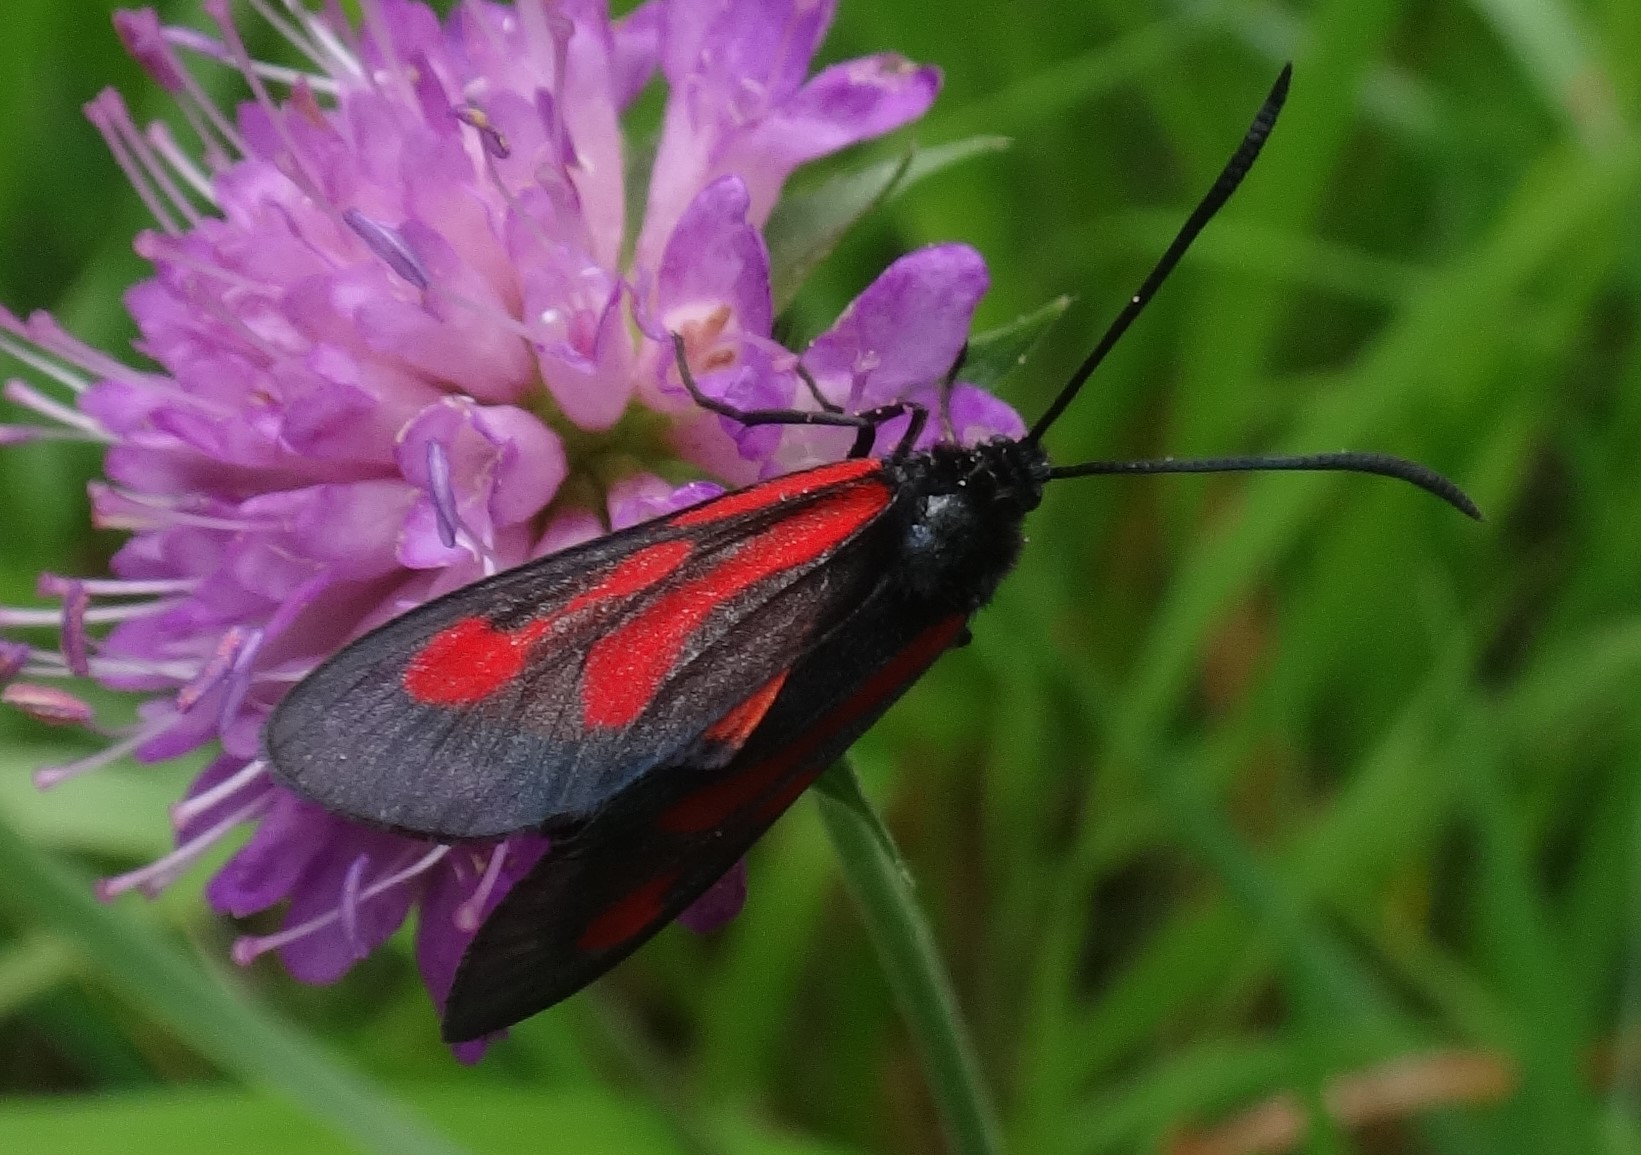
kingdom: Animalia
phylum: Arthropoda
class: Insecta
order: Lepidoptera
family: Zygaenidae
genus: Zygaena
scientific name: Zygaena osterodensis
